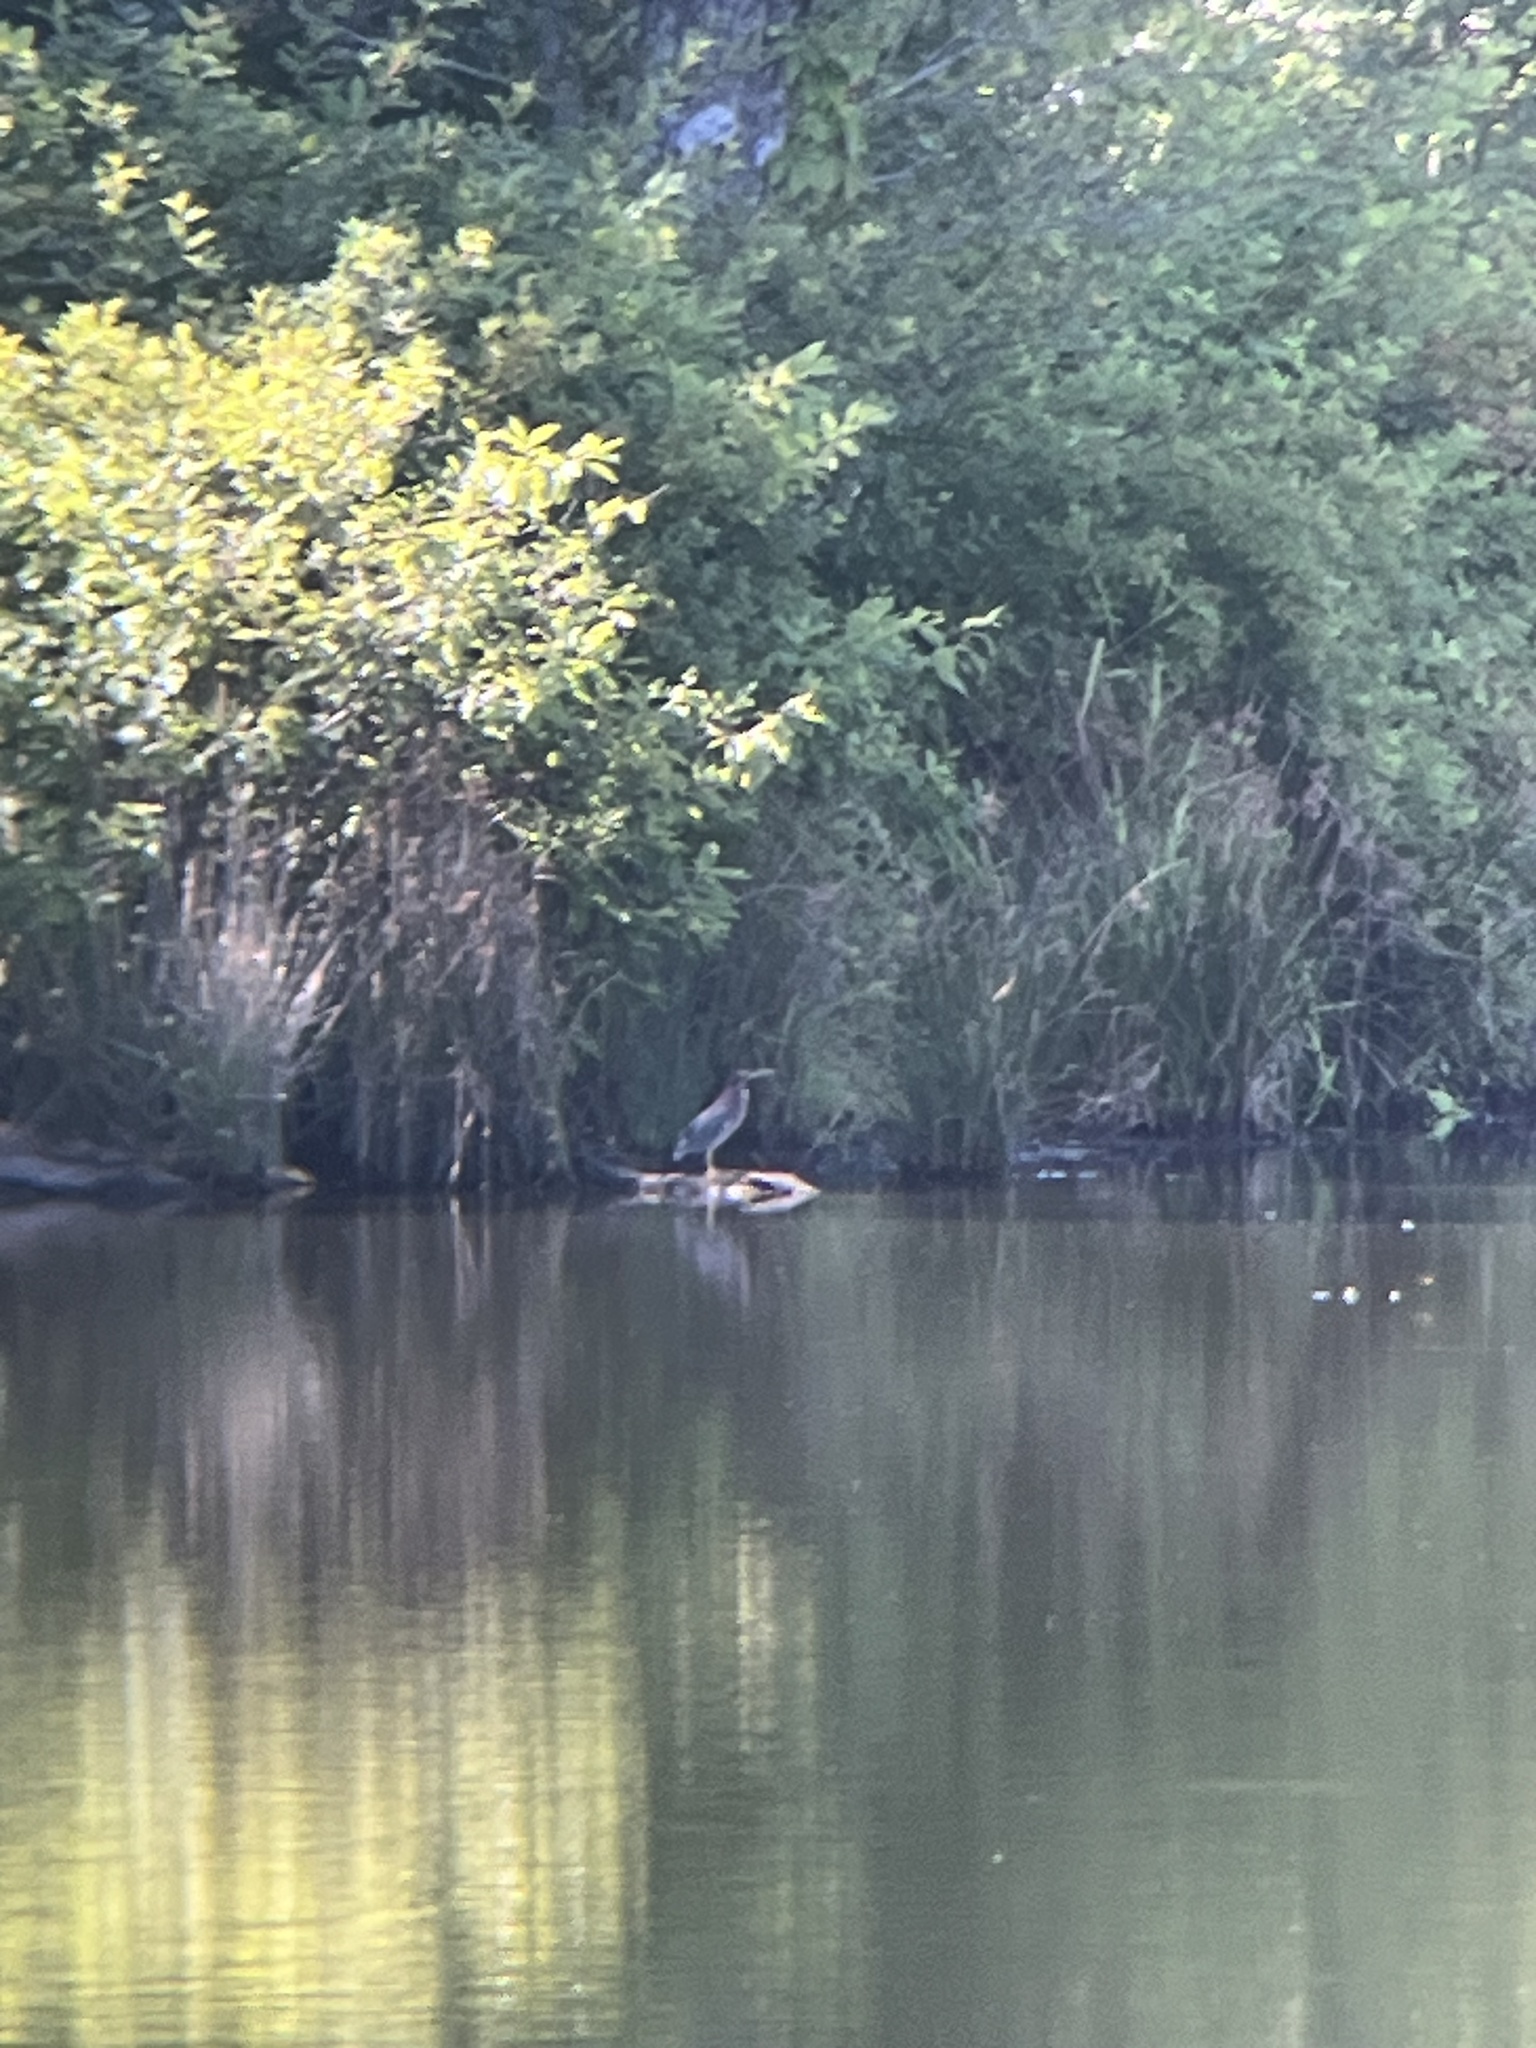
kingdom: Animalia
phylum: Chordata
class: Aves
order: Pelecaniformes
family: Ardeidae
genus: Butorides
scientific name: Butorides virescens
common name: Green heron
